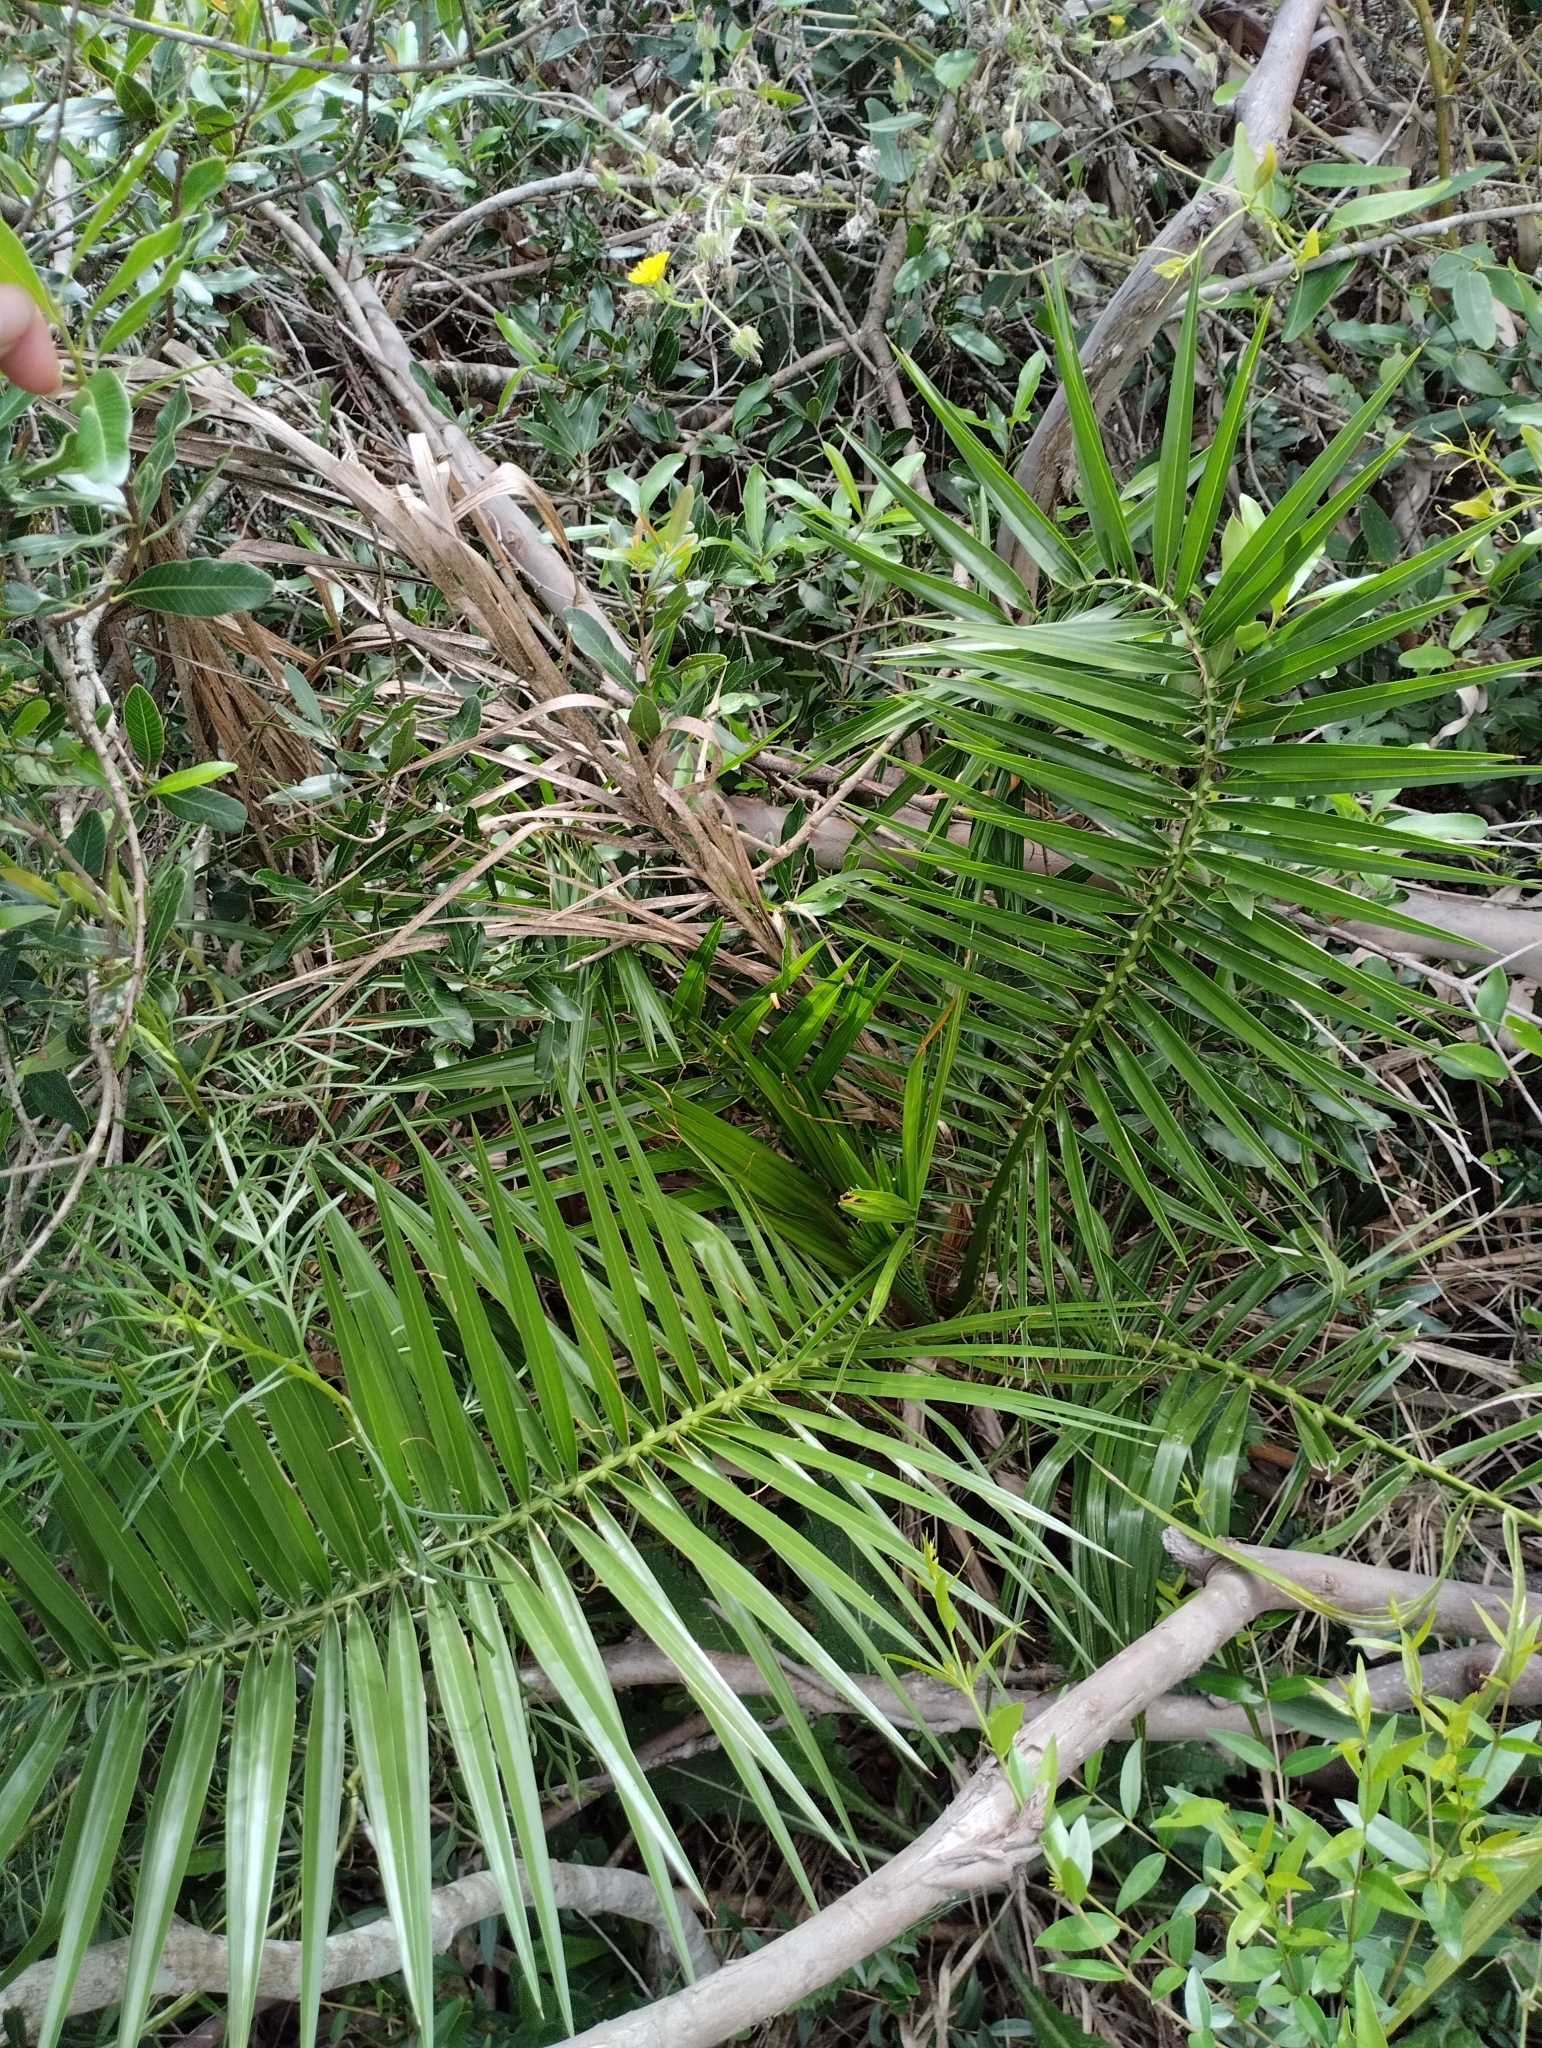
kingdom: Plantae
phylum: Tracheophyta
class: Liliopsida
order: Arecales
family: Arecaceae
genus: Phoenix
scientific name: Phoenix canariensis
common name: Canary island date palm
